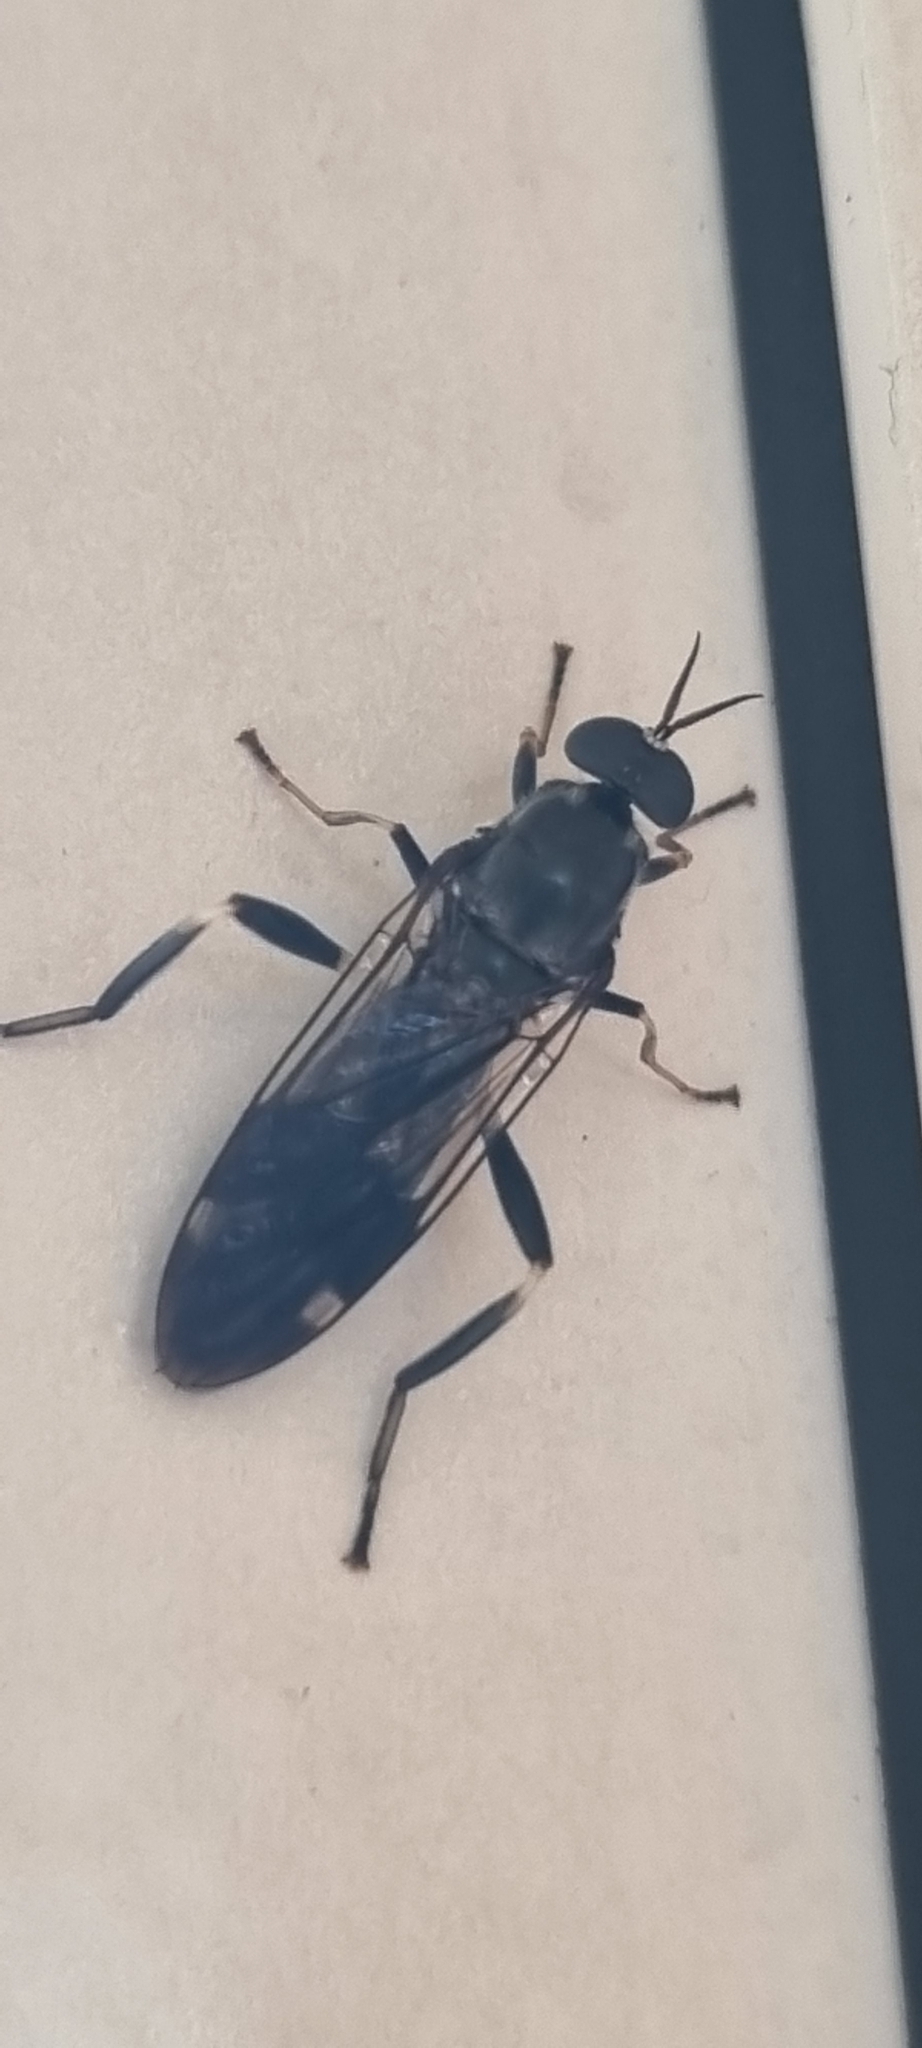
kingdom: Animalia
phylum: Arthropoda
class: Insecta
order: Diptera
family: Stratiomyidae
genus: Exaireta
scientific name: Exaireta spinigera
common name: Blue soldier fly
